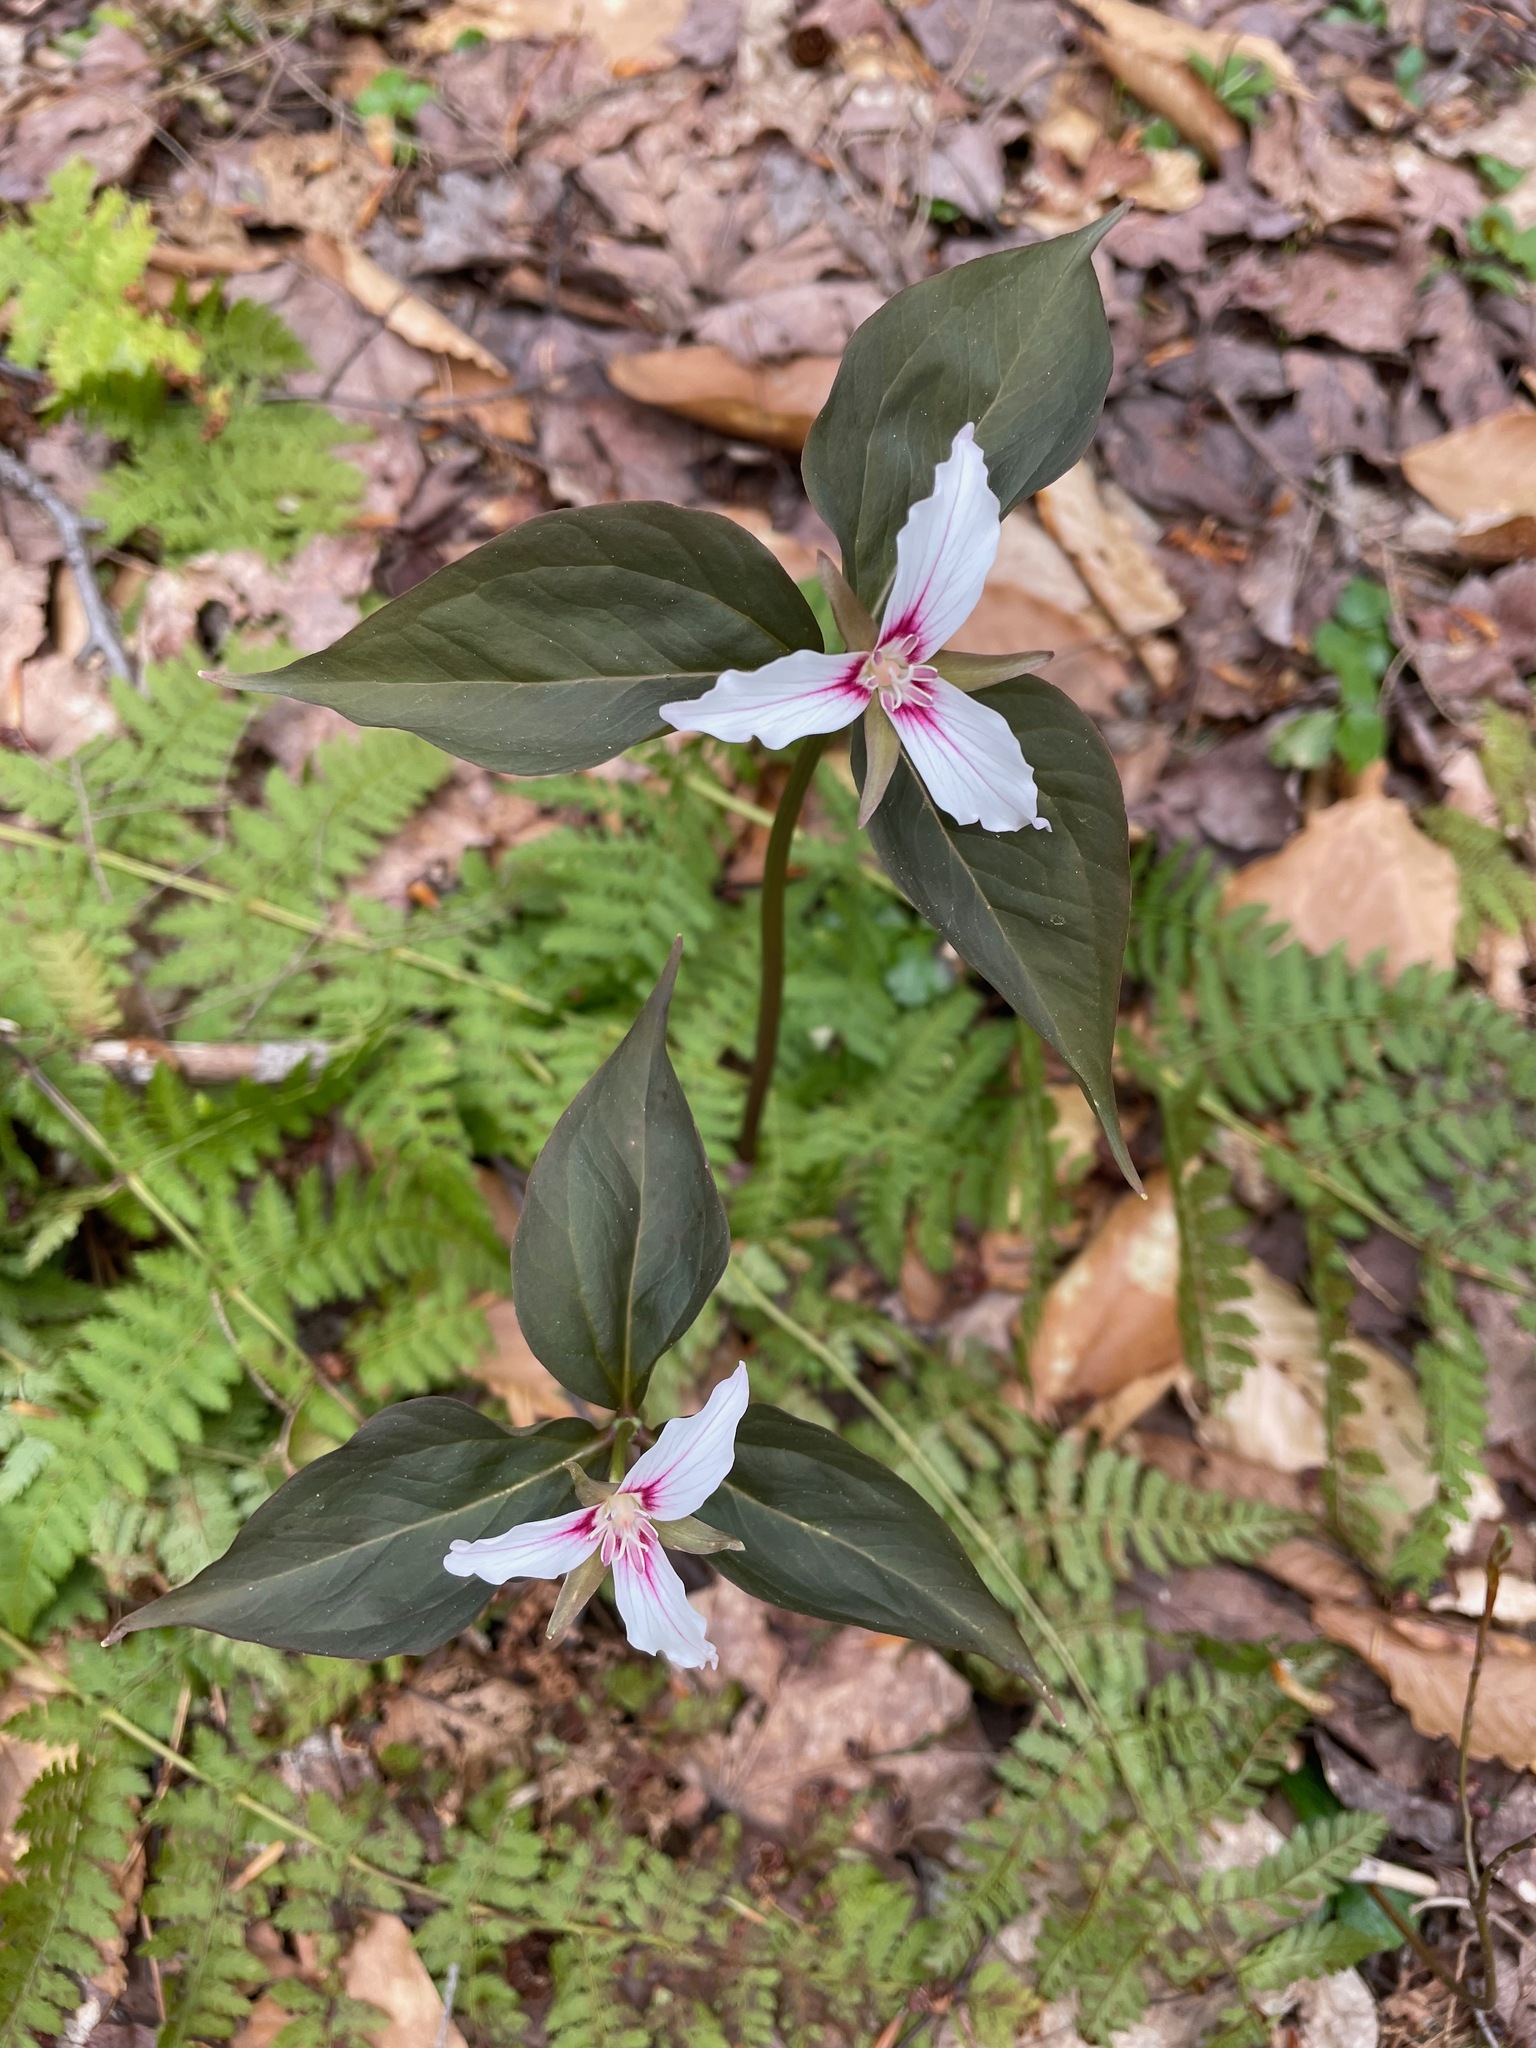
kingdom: Plantae
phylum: Tracheophyta
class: Liliopsida
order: Liliales
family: Melanthiaceae
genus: Trillium
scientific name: Trillium undulatum
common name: Paint trillium
